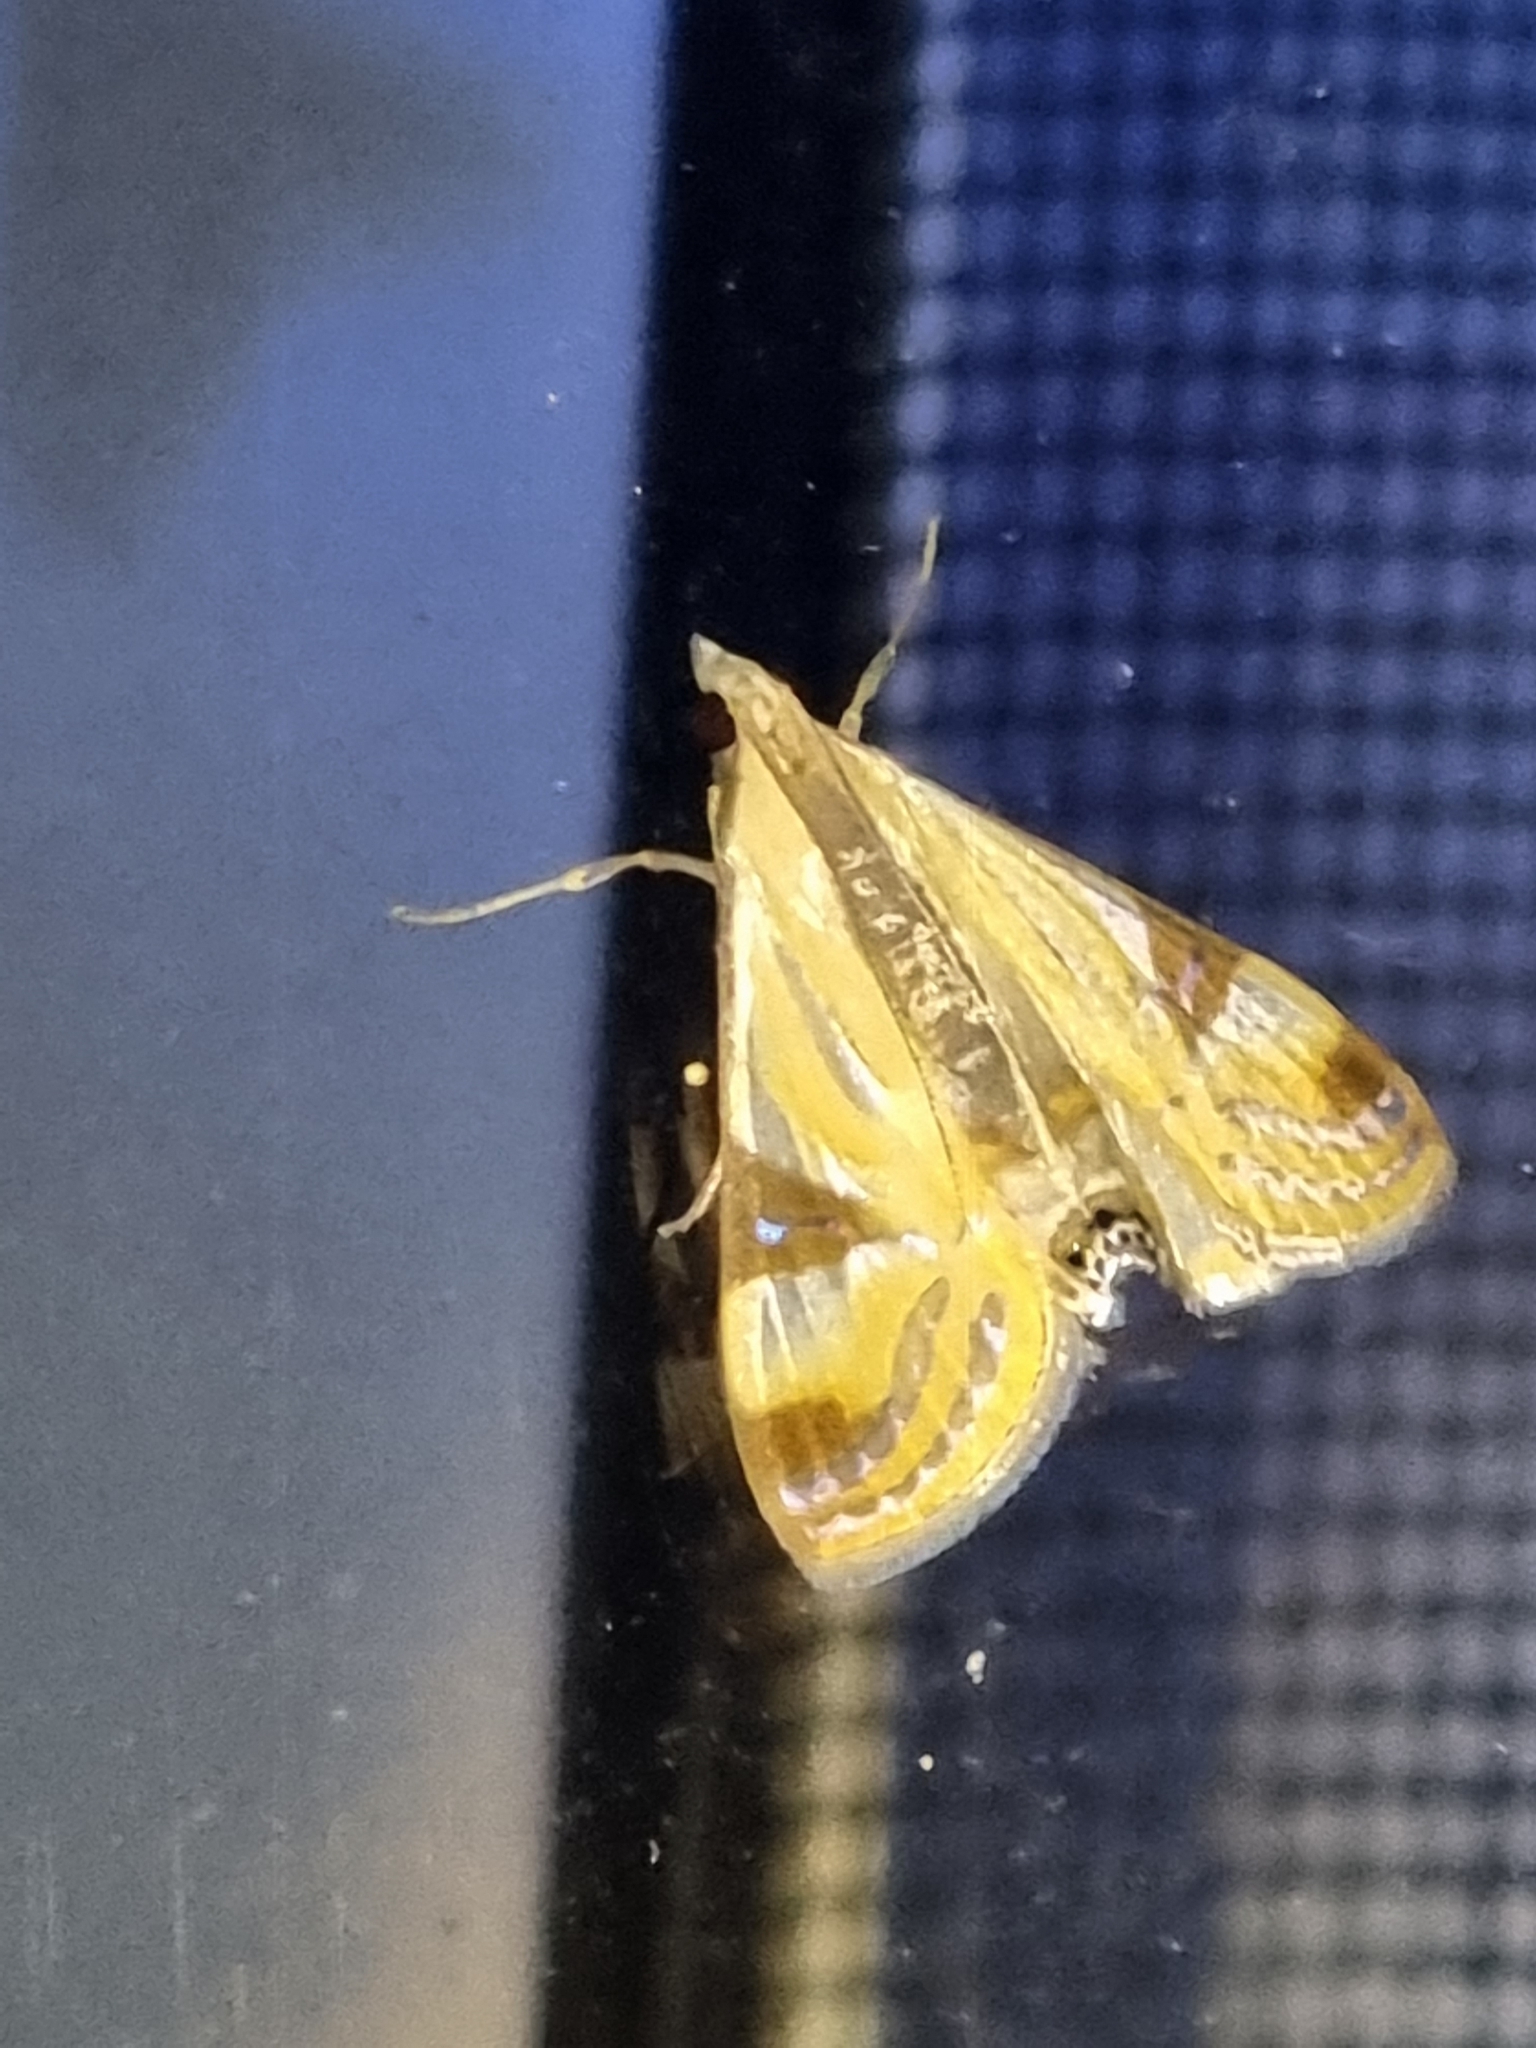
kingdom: Animalia
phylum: Arthropoda
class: Insecta
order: Lepidoptera
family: Crambidae
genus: Talanga
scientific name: Talanga tolumnialis
